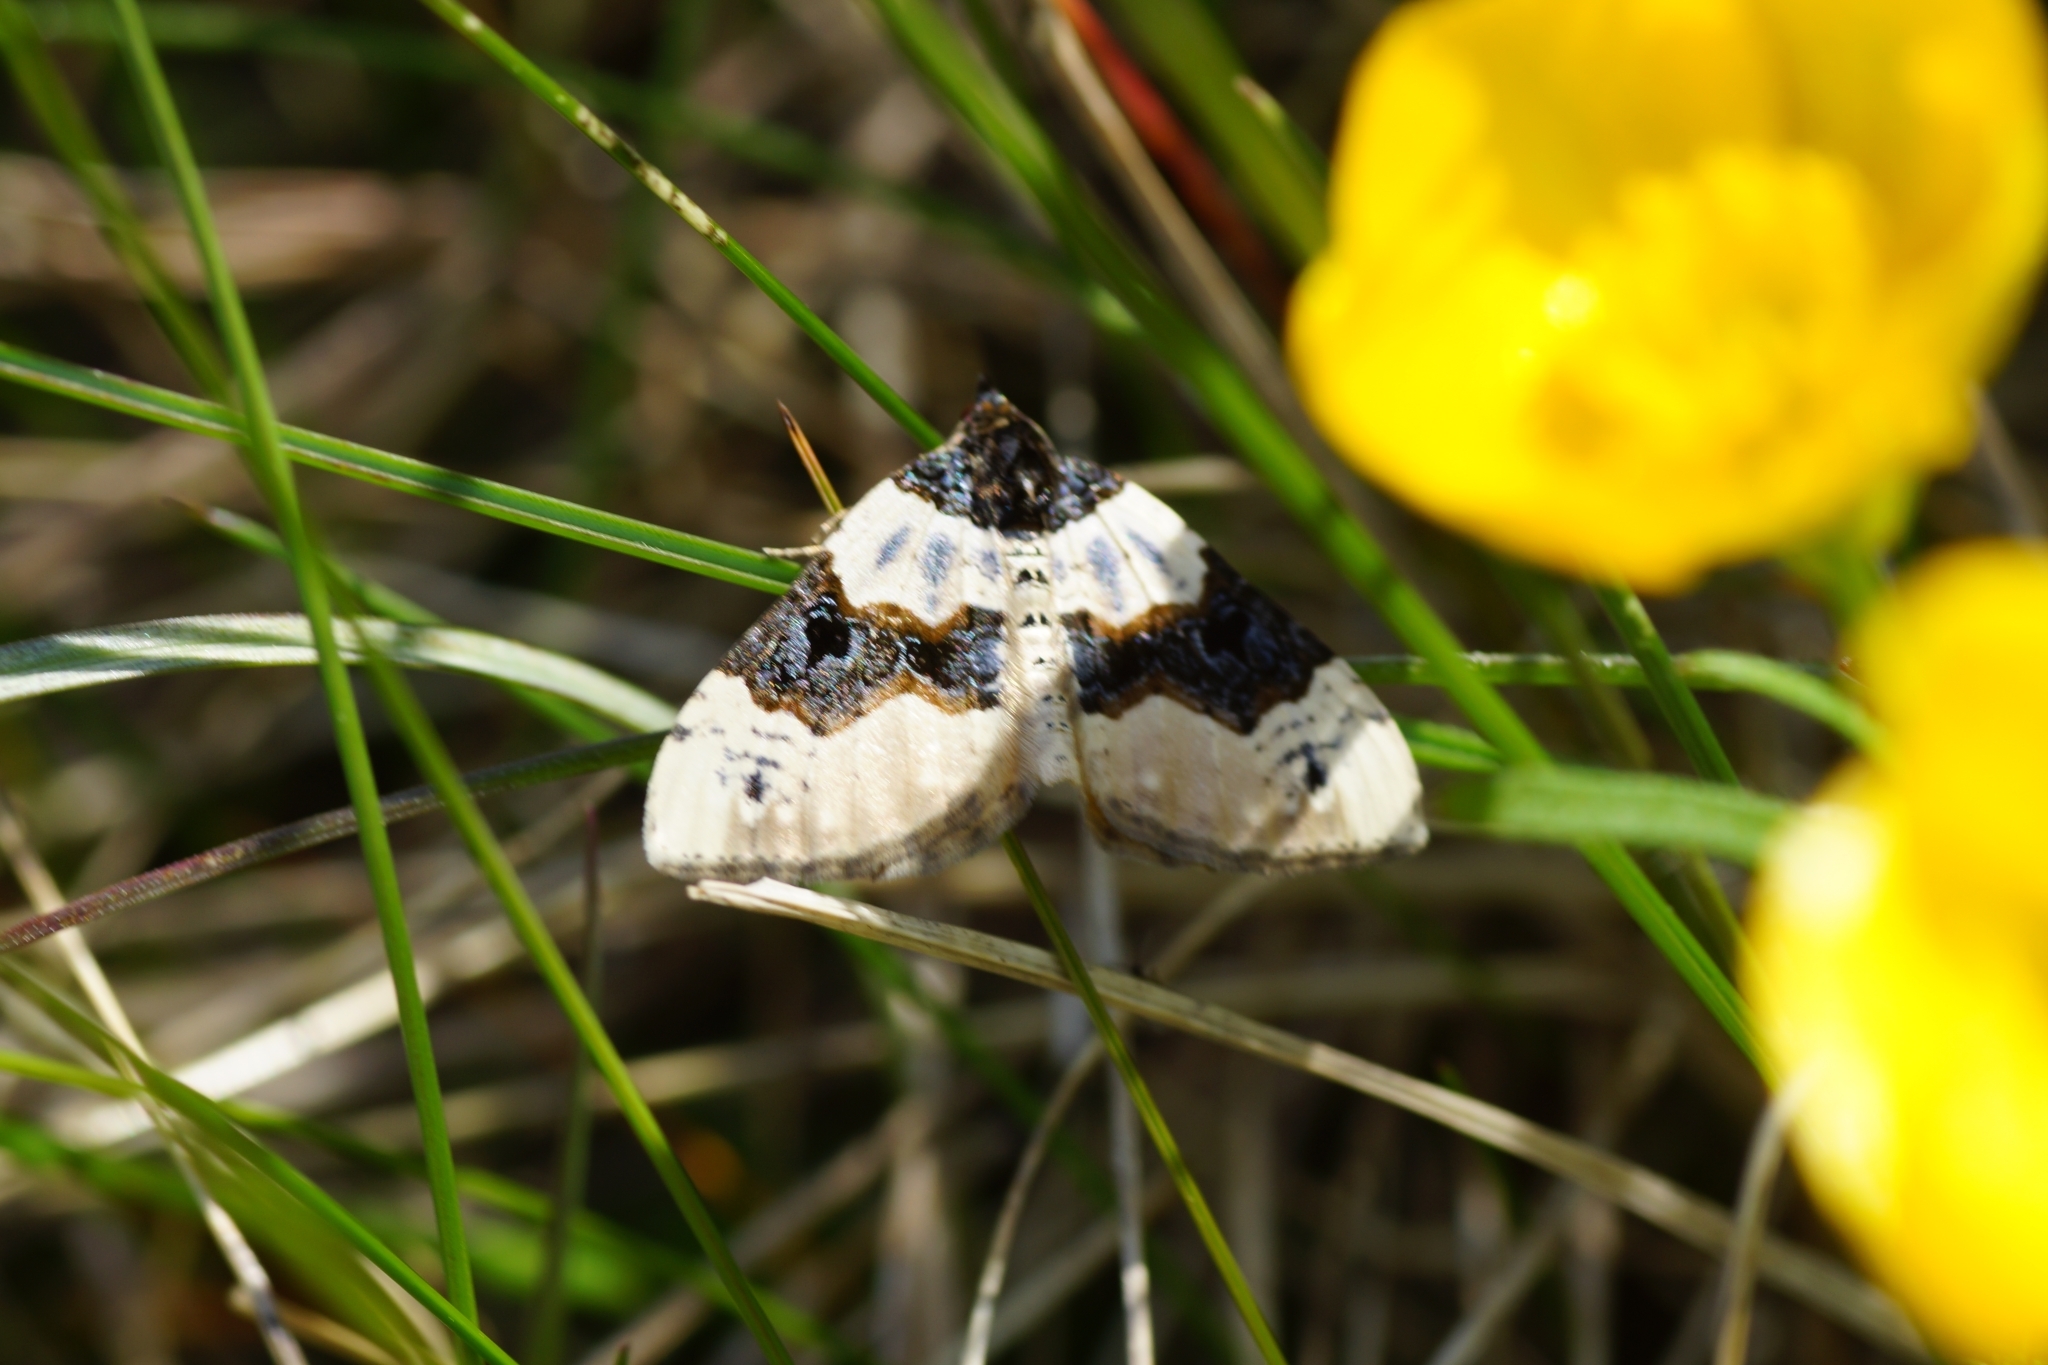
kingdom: Animalia
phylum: Arthropoda
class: Insecta
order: Lepidoptera
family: Geometridae
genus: Cosmorhoe
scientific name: Cosmorhoe ocellata
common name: Purple bar
